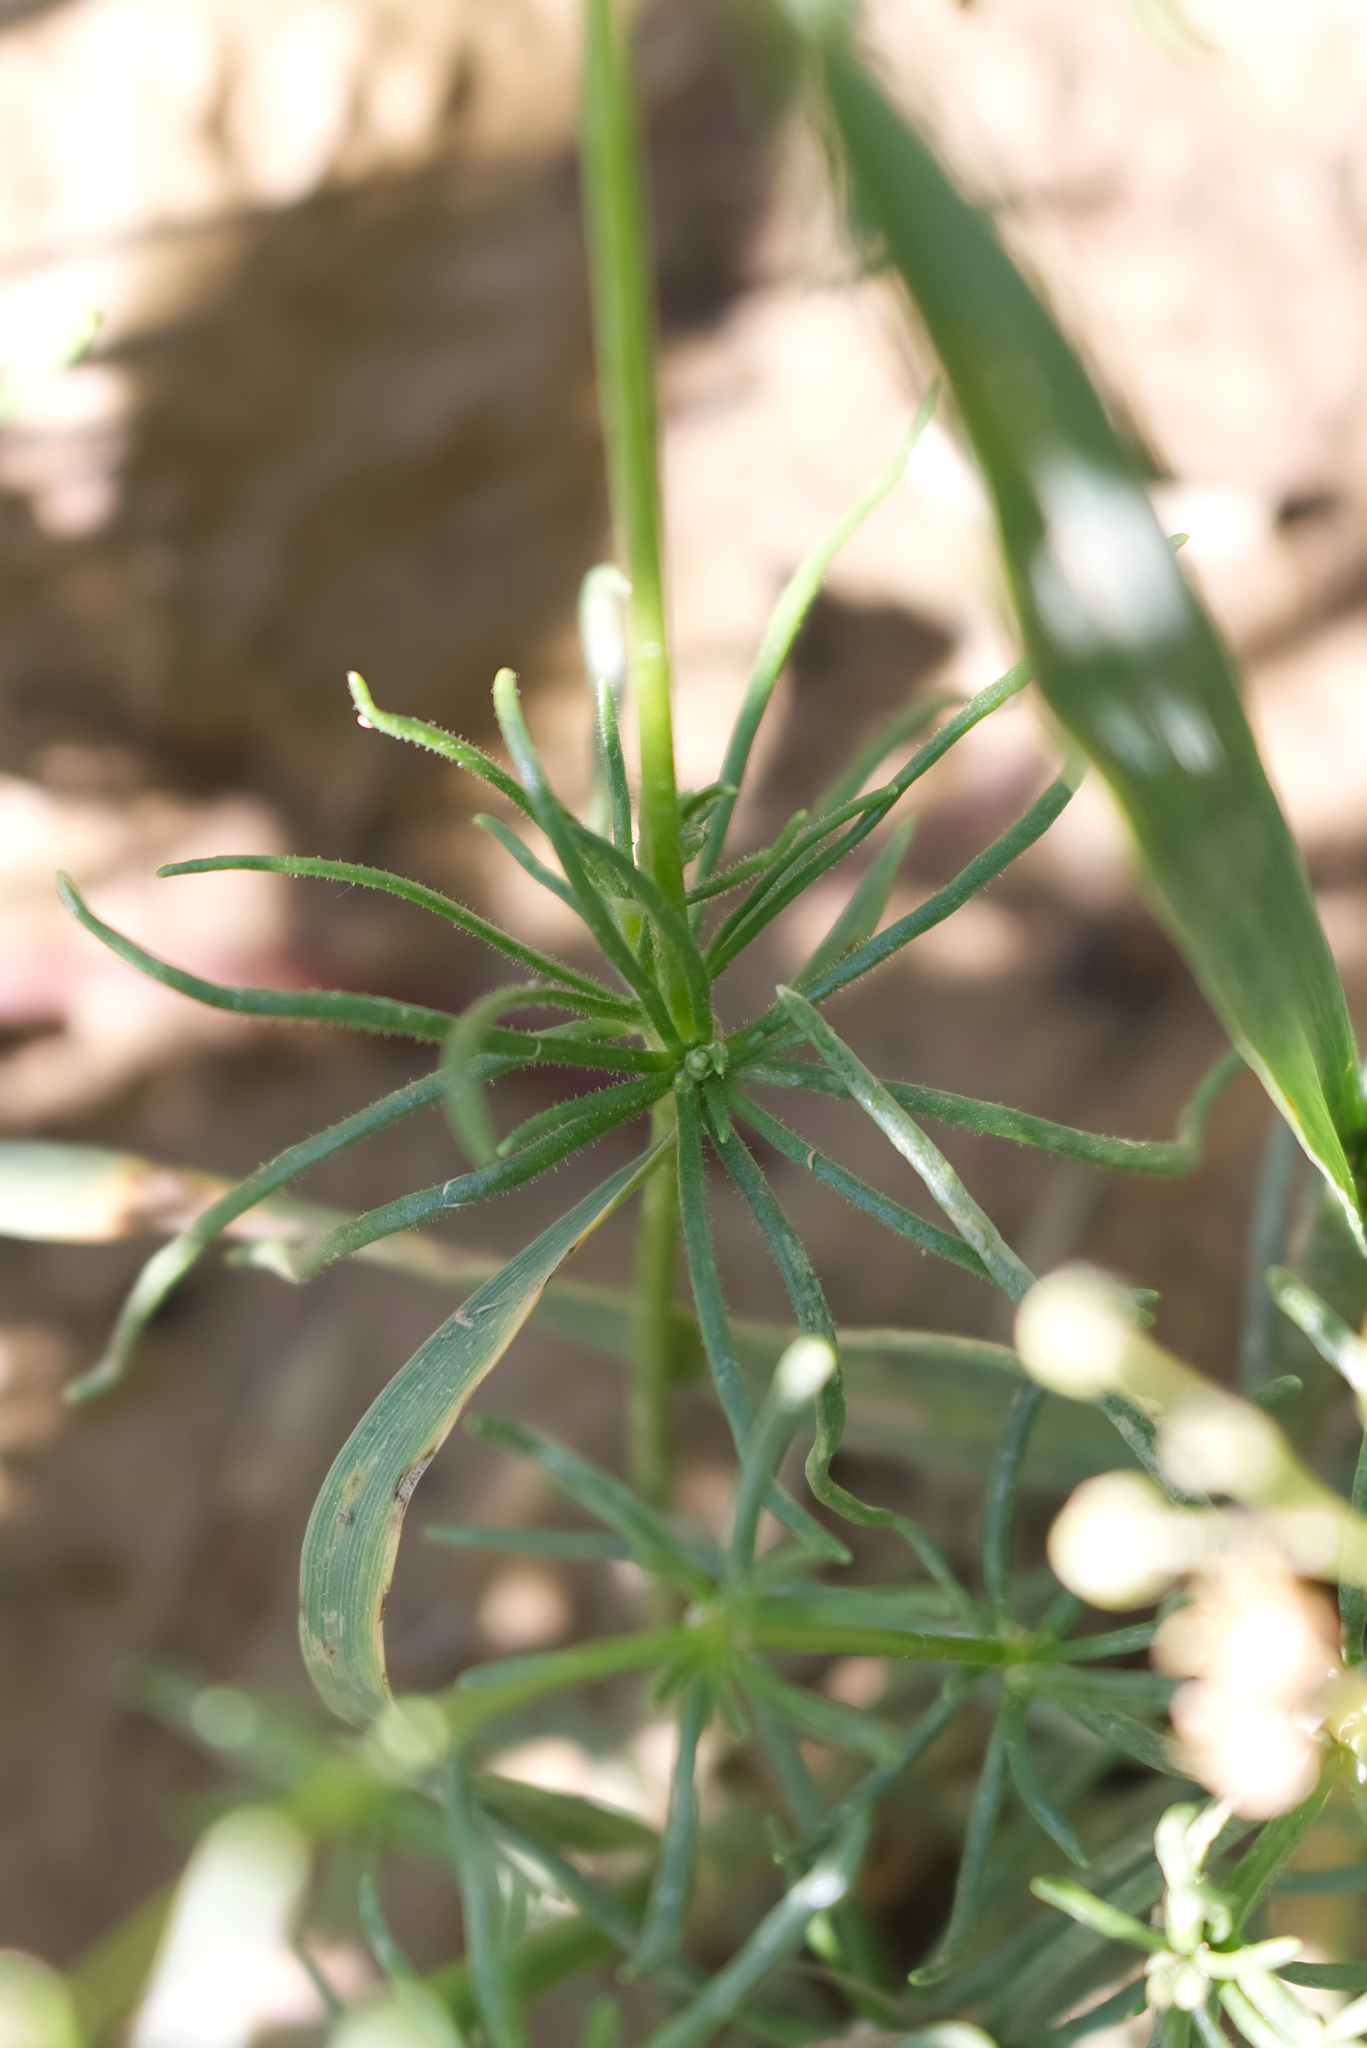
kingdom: Plantae
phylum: Tracheophyta
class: Magnoliopsida
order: Caryophyllales
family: Caryophyllaceae
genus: Spergula
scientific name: Spergula arvensis
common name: Corn spurrey
